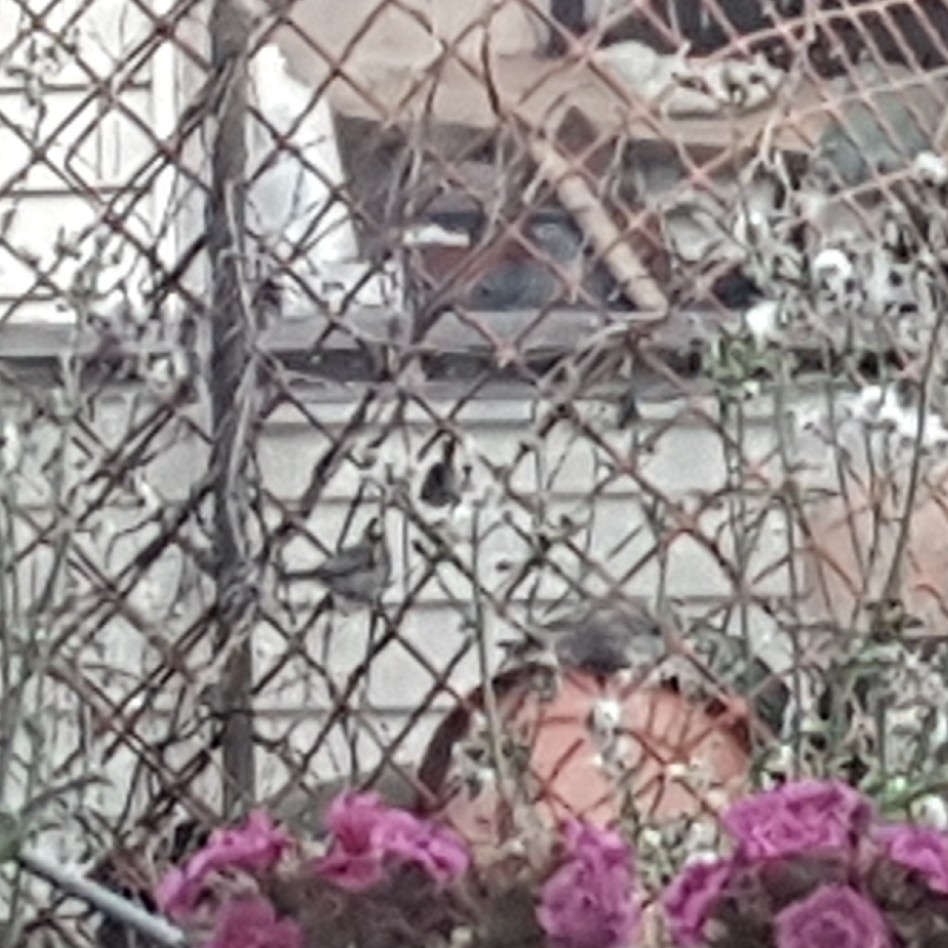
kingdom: Animalia
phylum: Chordata
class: Aves
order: Passeriformes
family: Aegithalidae
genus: Psaltriparus
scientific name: Psaltriparus minimus
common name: American bushtit
